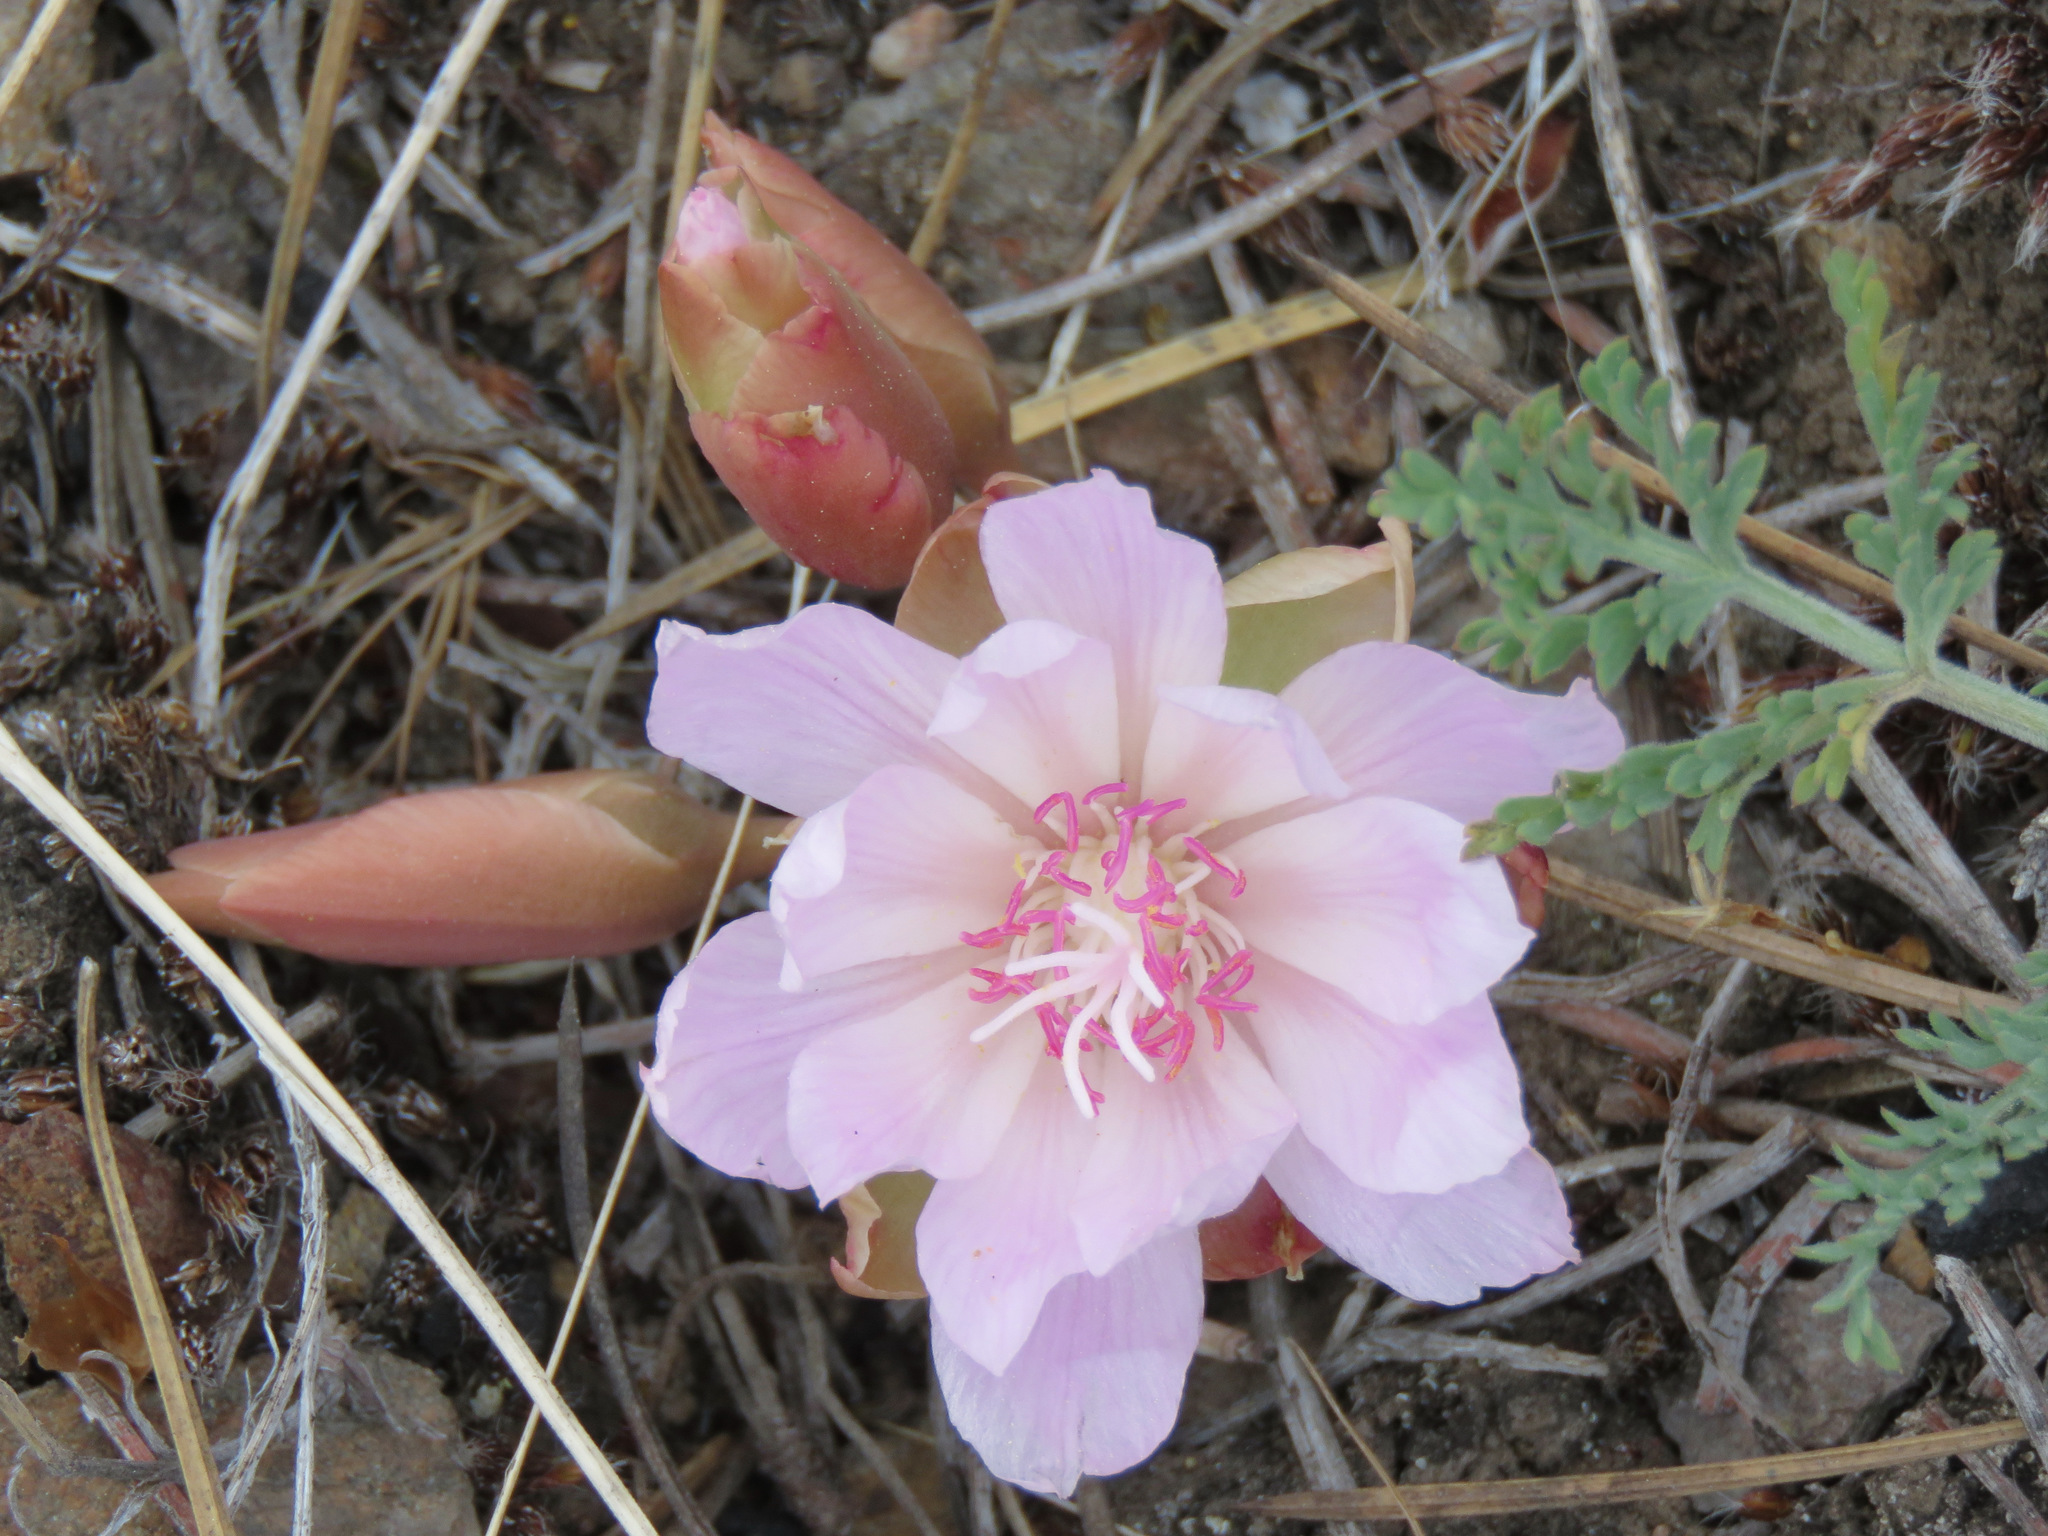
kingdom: Plantae
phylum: Tracheophyta
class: Magnoliopsida
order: Caryophyllales
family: Montiaceae
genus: Lewisia
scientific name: Lewisia rediviva
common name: Bitter-root
